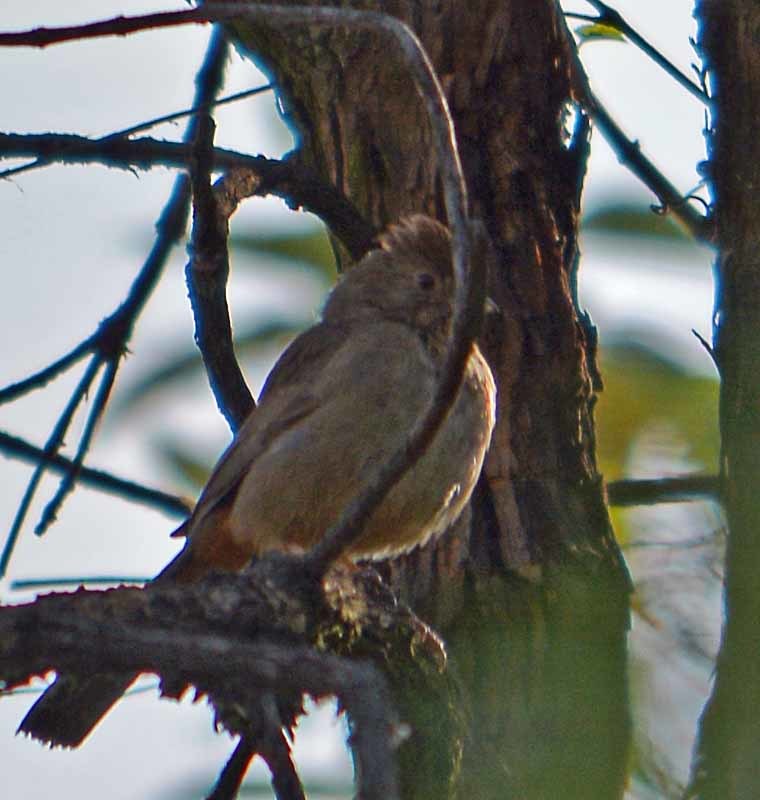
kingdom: Animalia
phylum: Chordata
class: Aves
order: Passeriformes
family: Passerellidae
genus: Melozone
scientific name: Melozone fusca
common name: Canyon towhee
